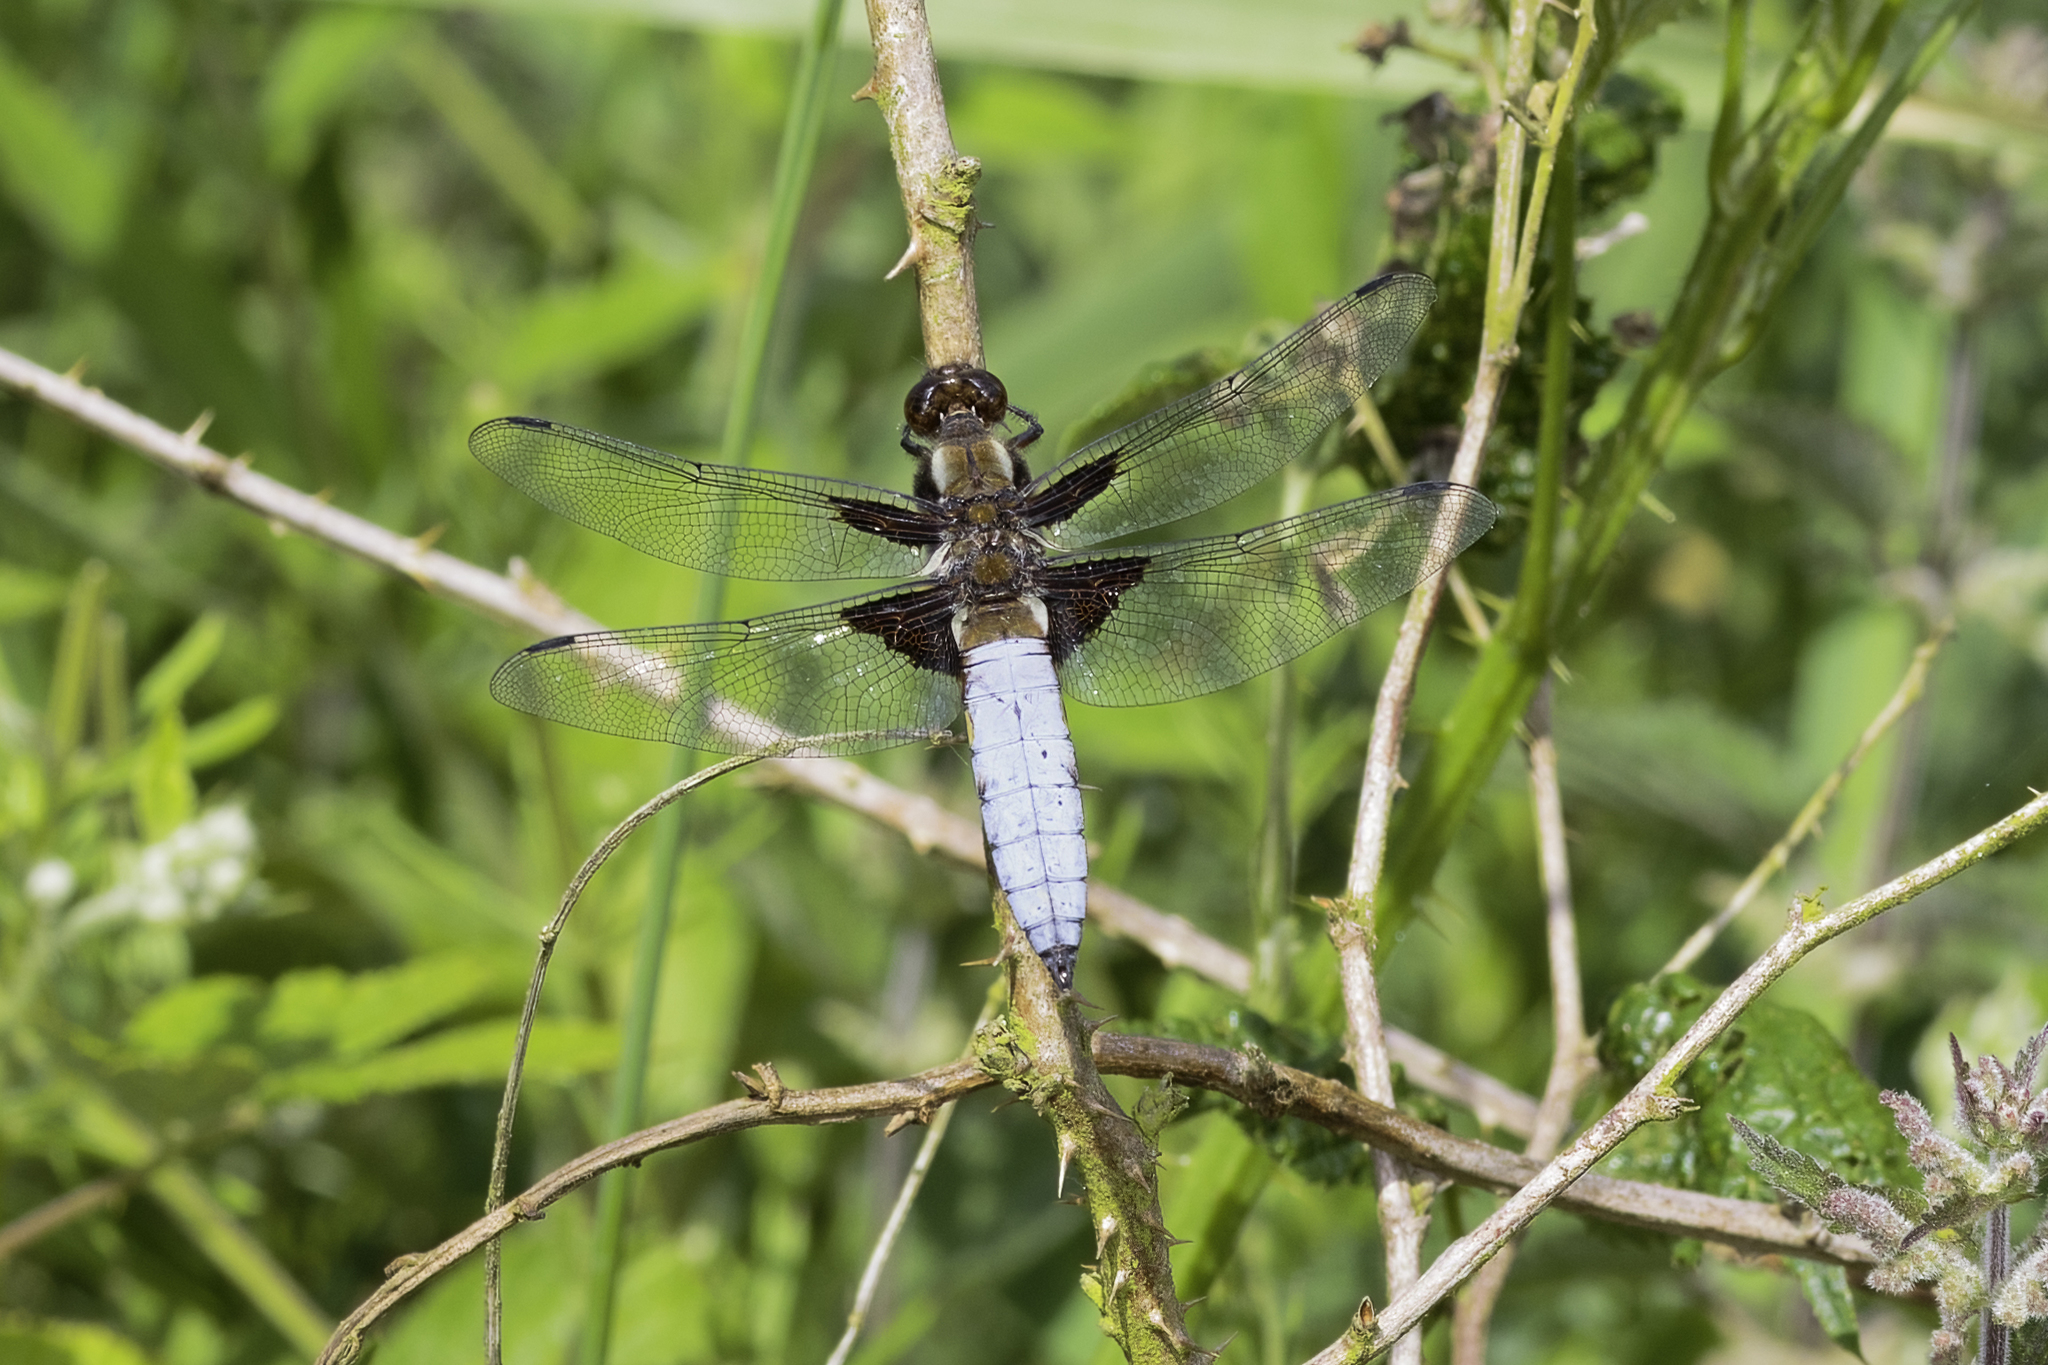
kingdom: Animalia
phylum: Arthropoda
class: Insecta
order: Odonata
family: Libellulidae
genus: Libellula
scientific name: Libellula depressa
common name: Broad-bodied chaser
